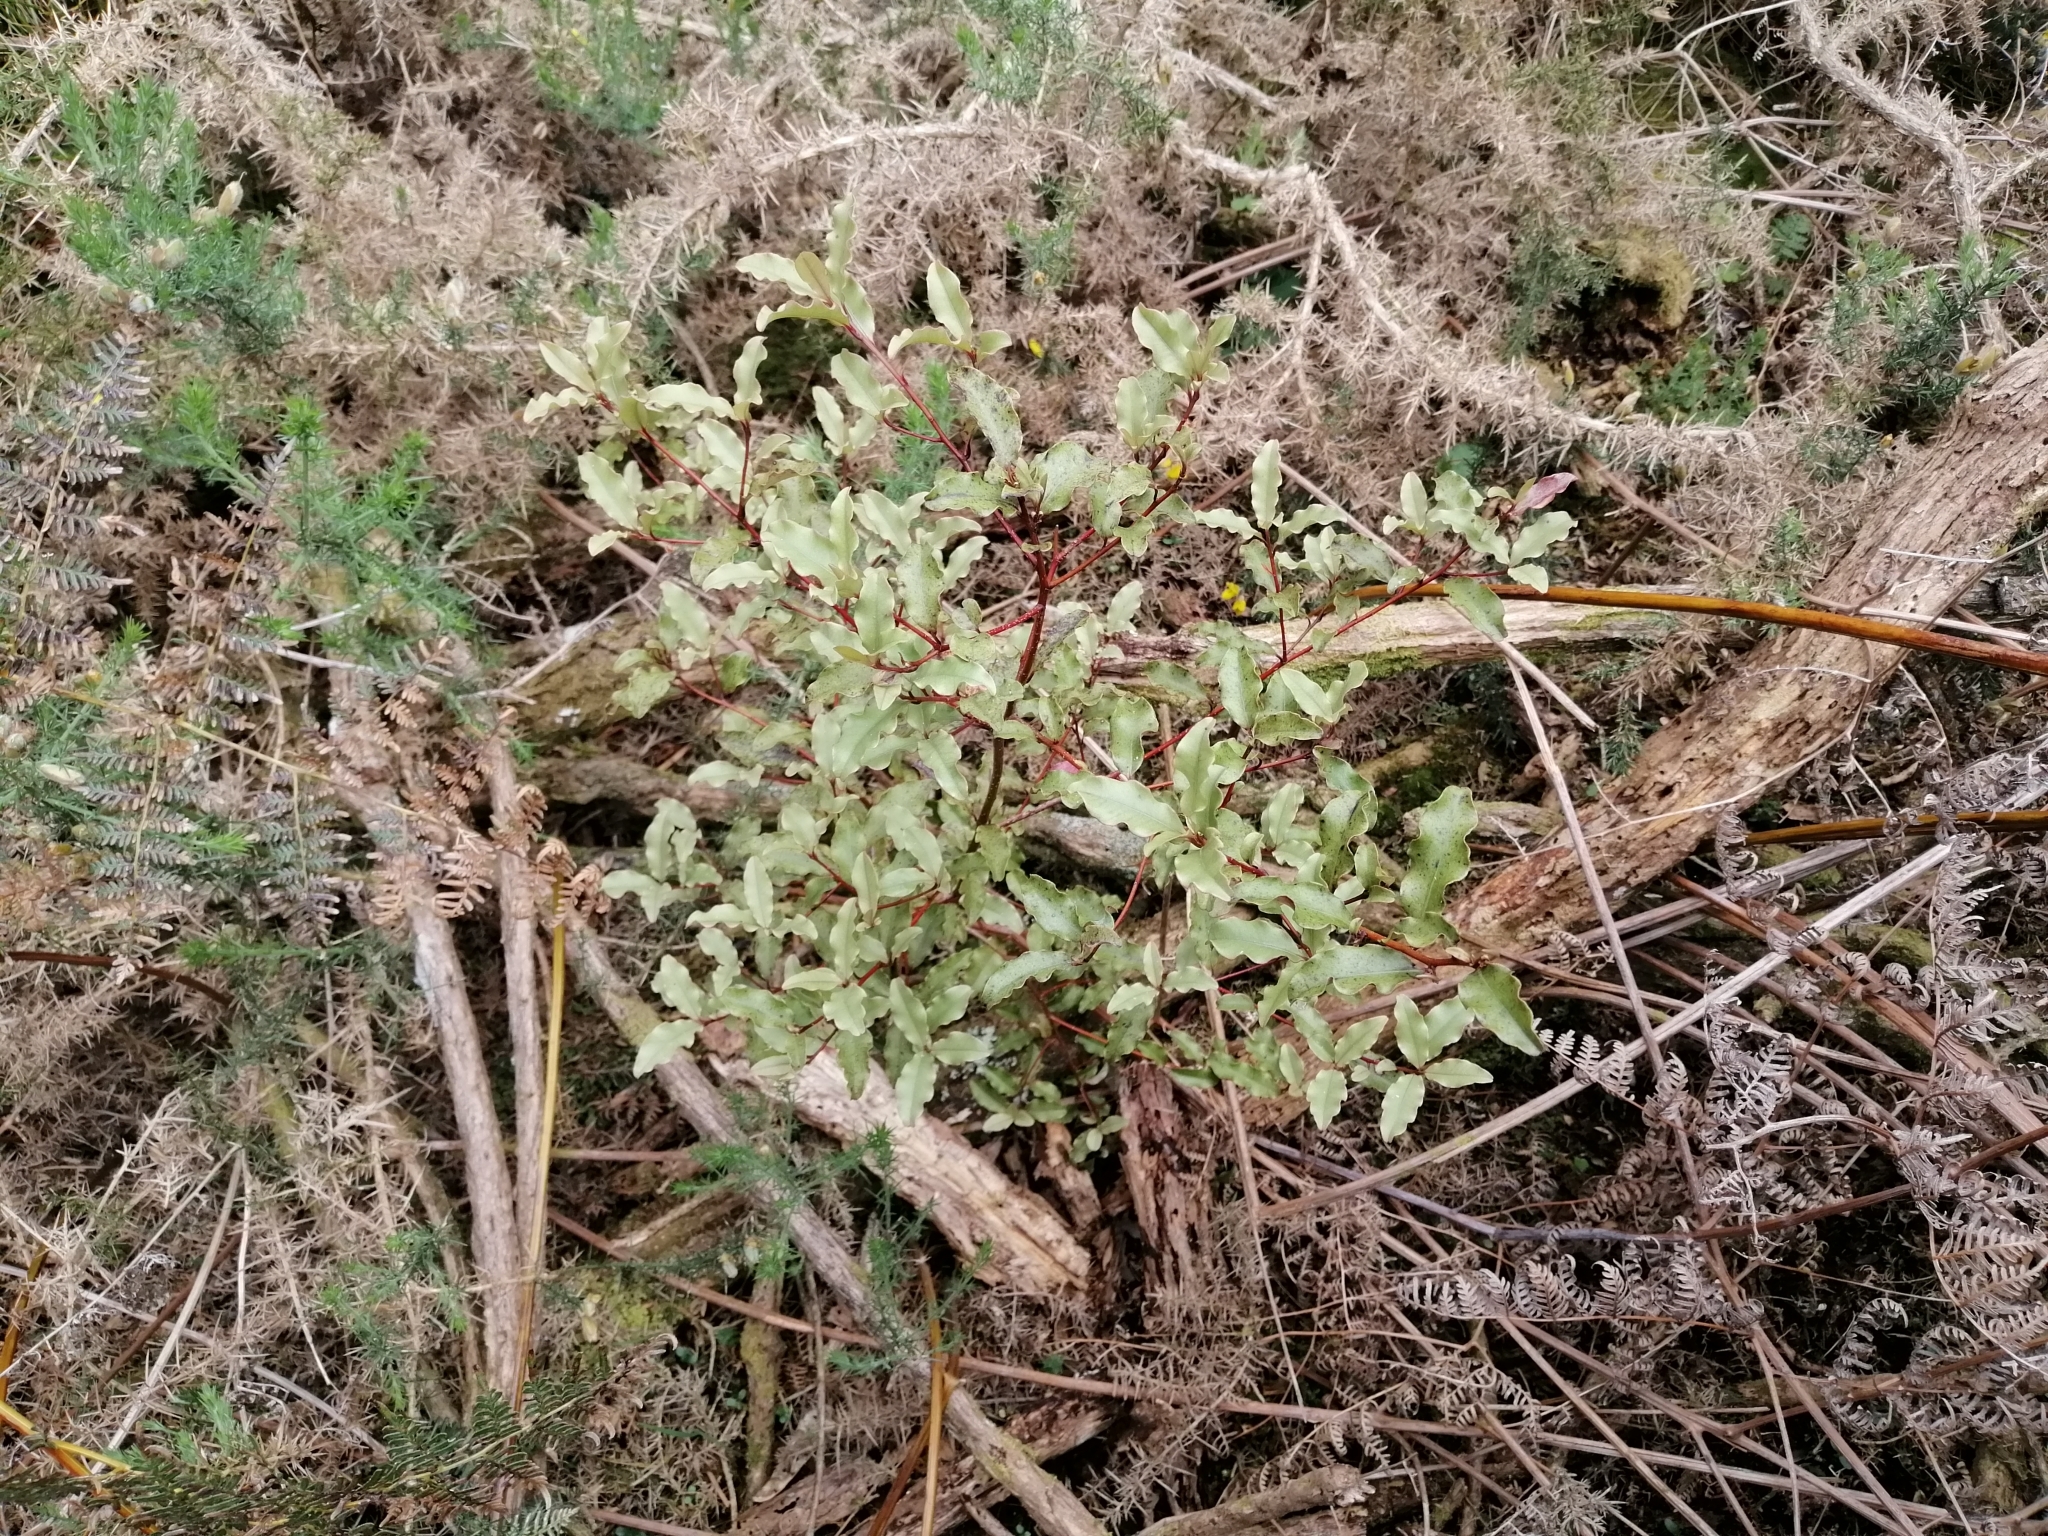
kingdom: Plantae
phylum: Tracheophyta
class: Magnoliopsida
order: Ericales
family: Primulaceae
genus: Myrsine
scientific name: Myrsine australis
